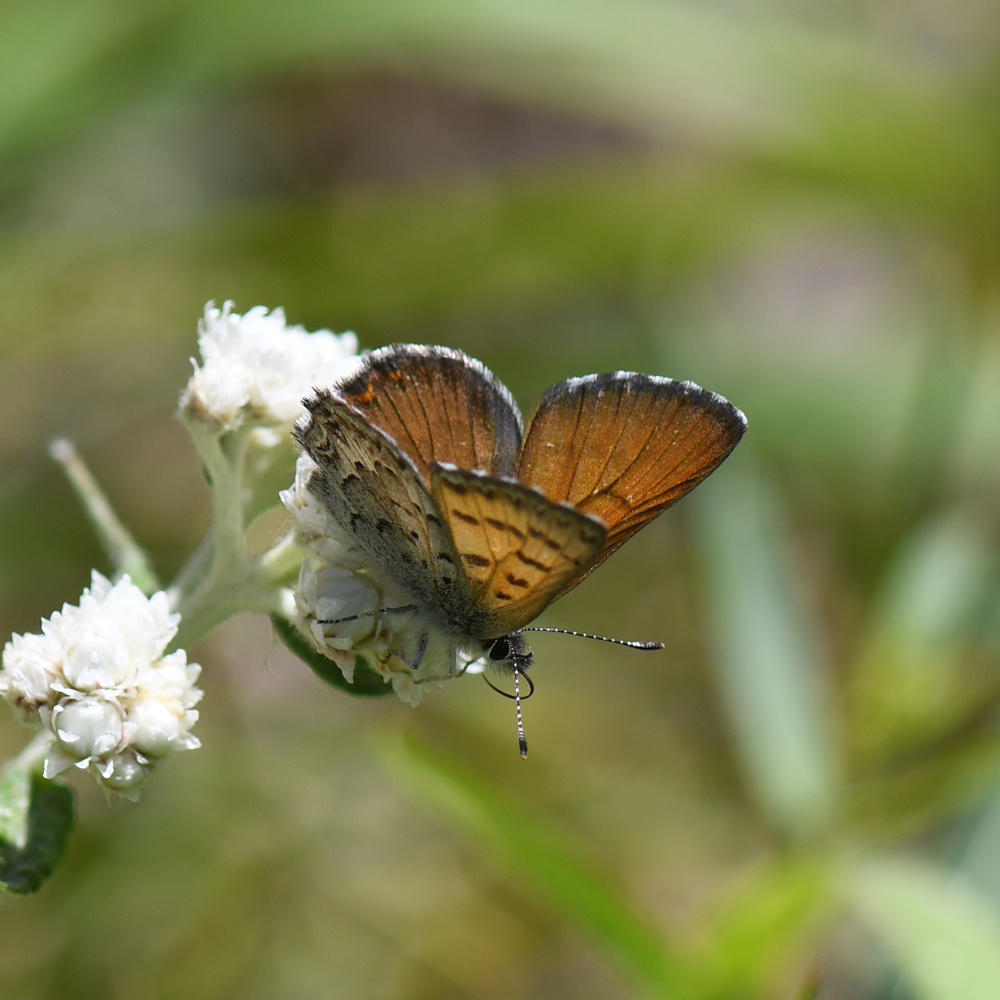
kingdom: Animalia
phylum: Arthropoda
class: Insecta
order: Lepidoptera
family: Lycaenidae
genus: Tharsalea
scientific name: Tharsalea mariposa
